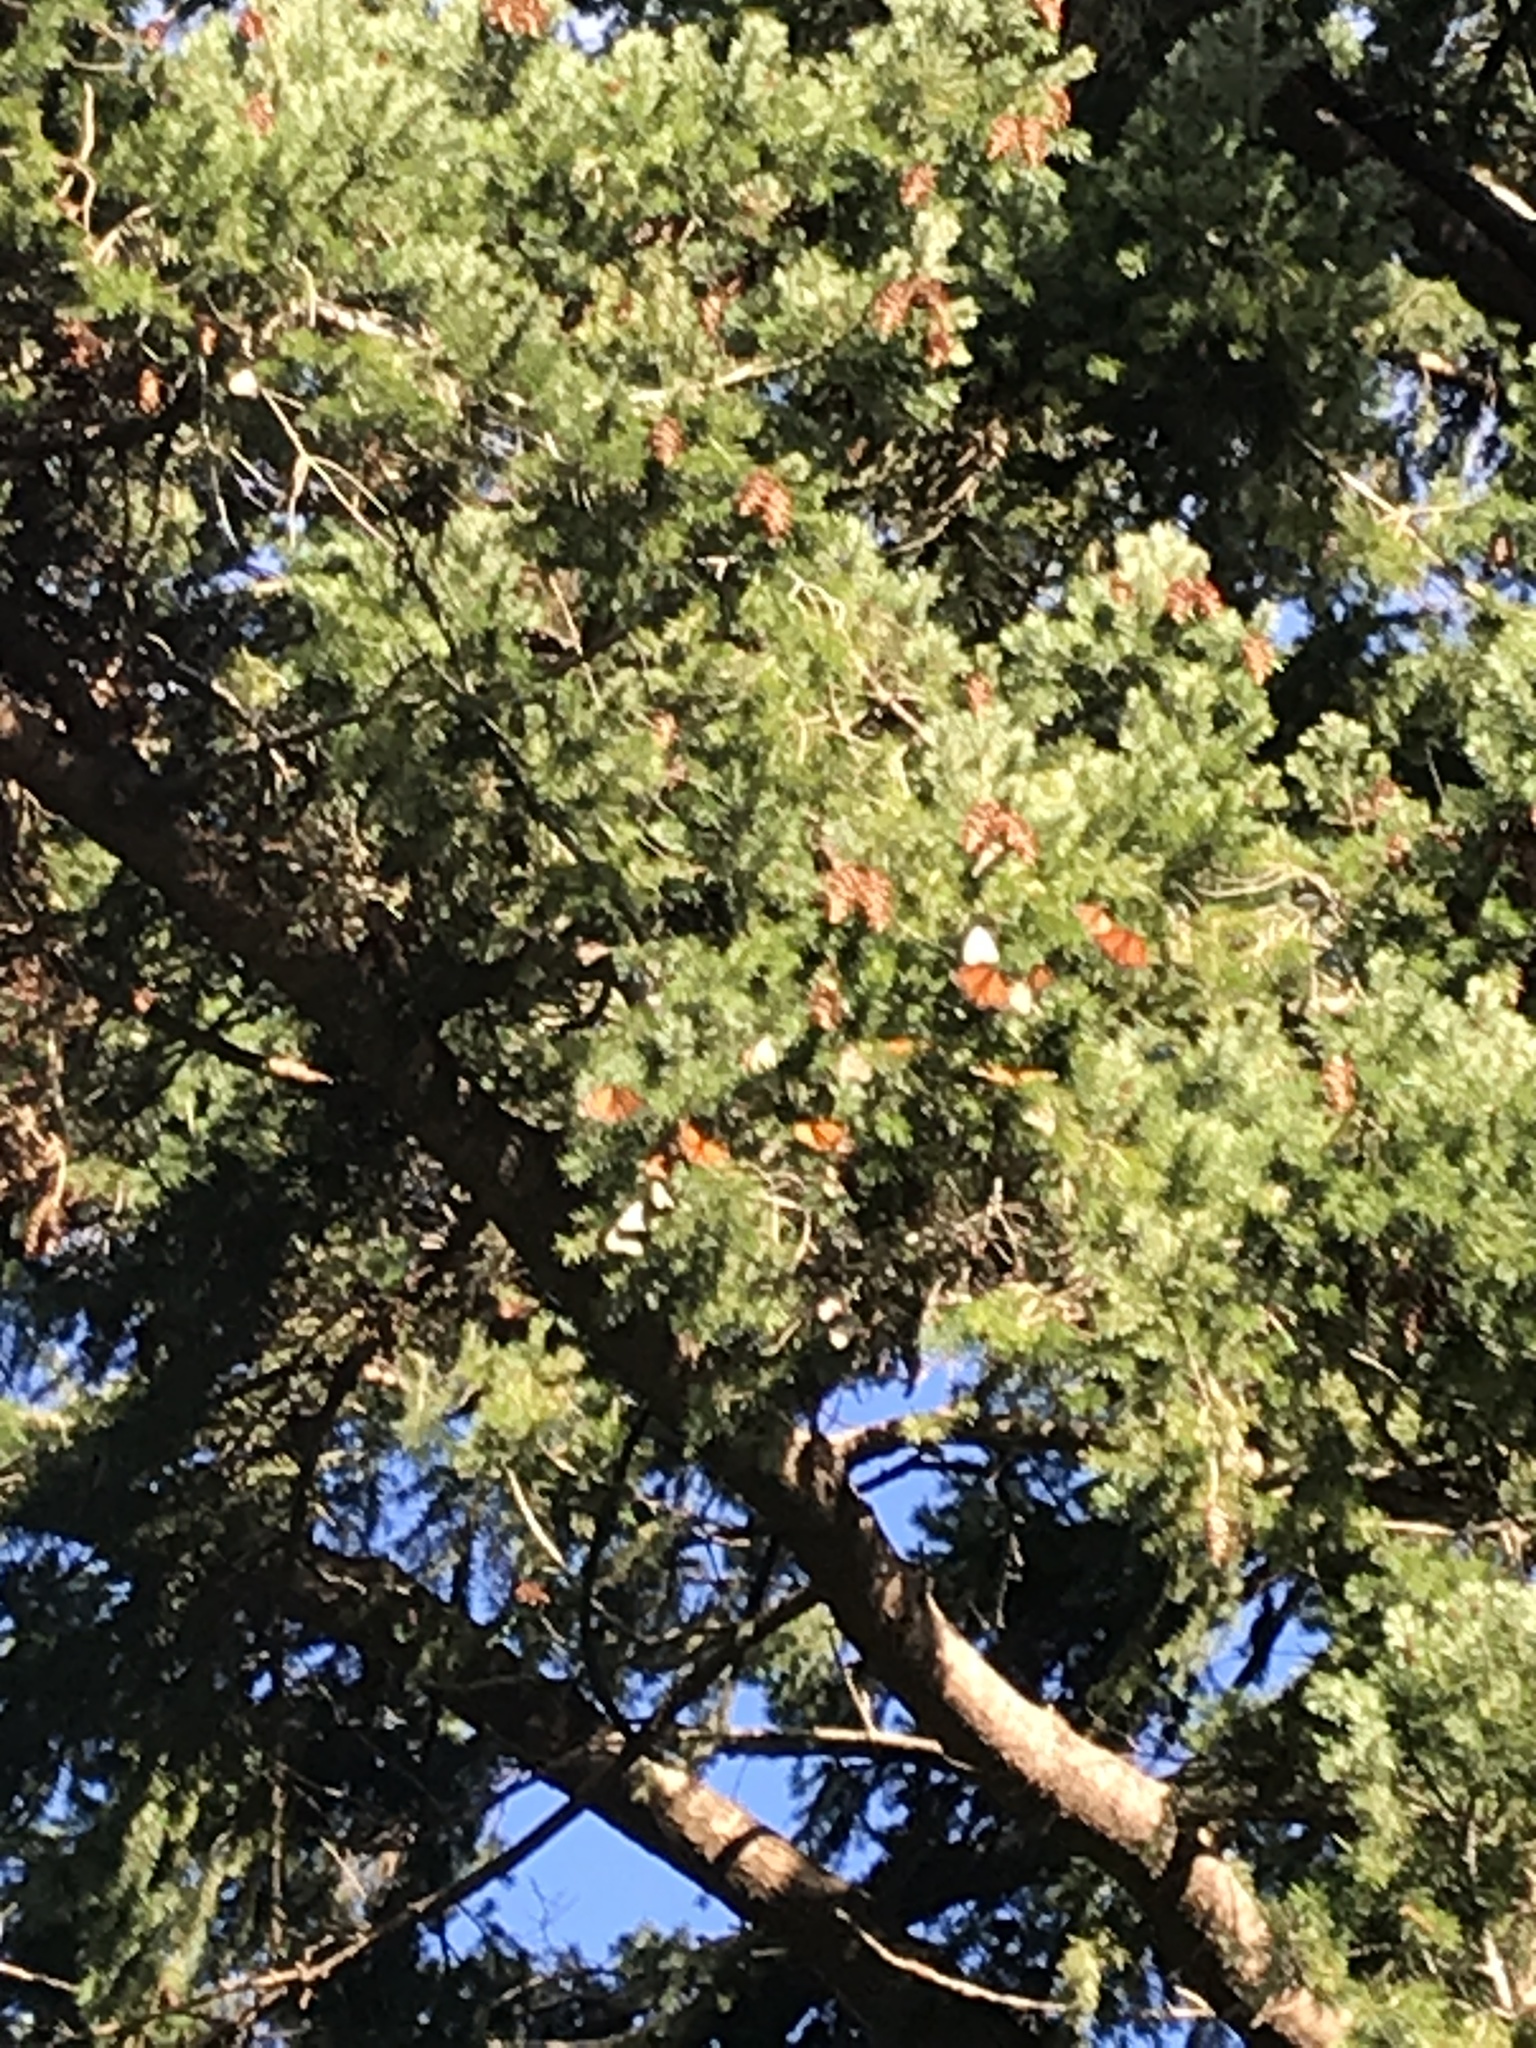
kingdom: Animalia
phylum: Arthropoda
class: Insecta
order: Lepidoptera
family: Nymphalidae
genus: Danaus
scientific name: Danaus plexippus
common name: Monarch
